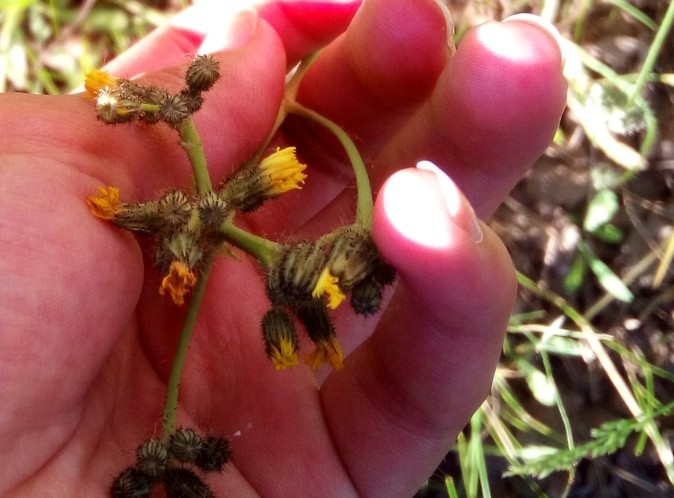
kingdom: Plantae
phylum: Tracheophyta
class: Magnoliopsida
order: Asterales
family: Asteraceae
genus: Pilosella
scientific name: Pilosella
